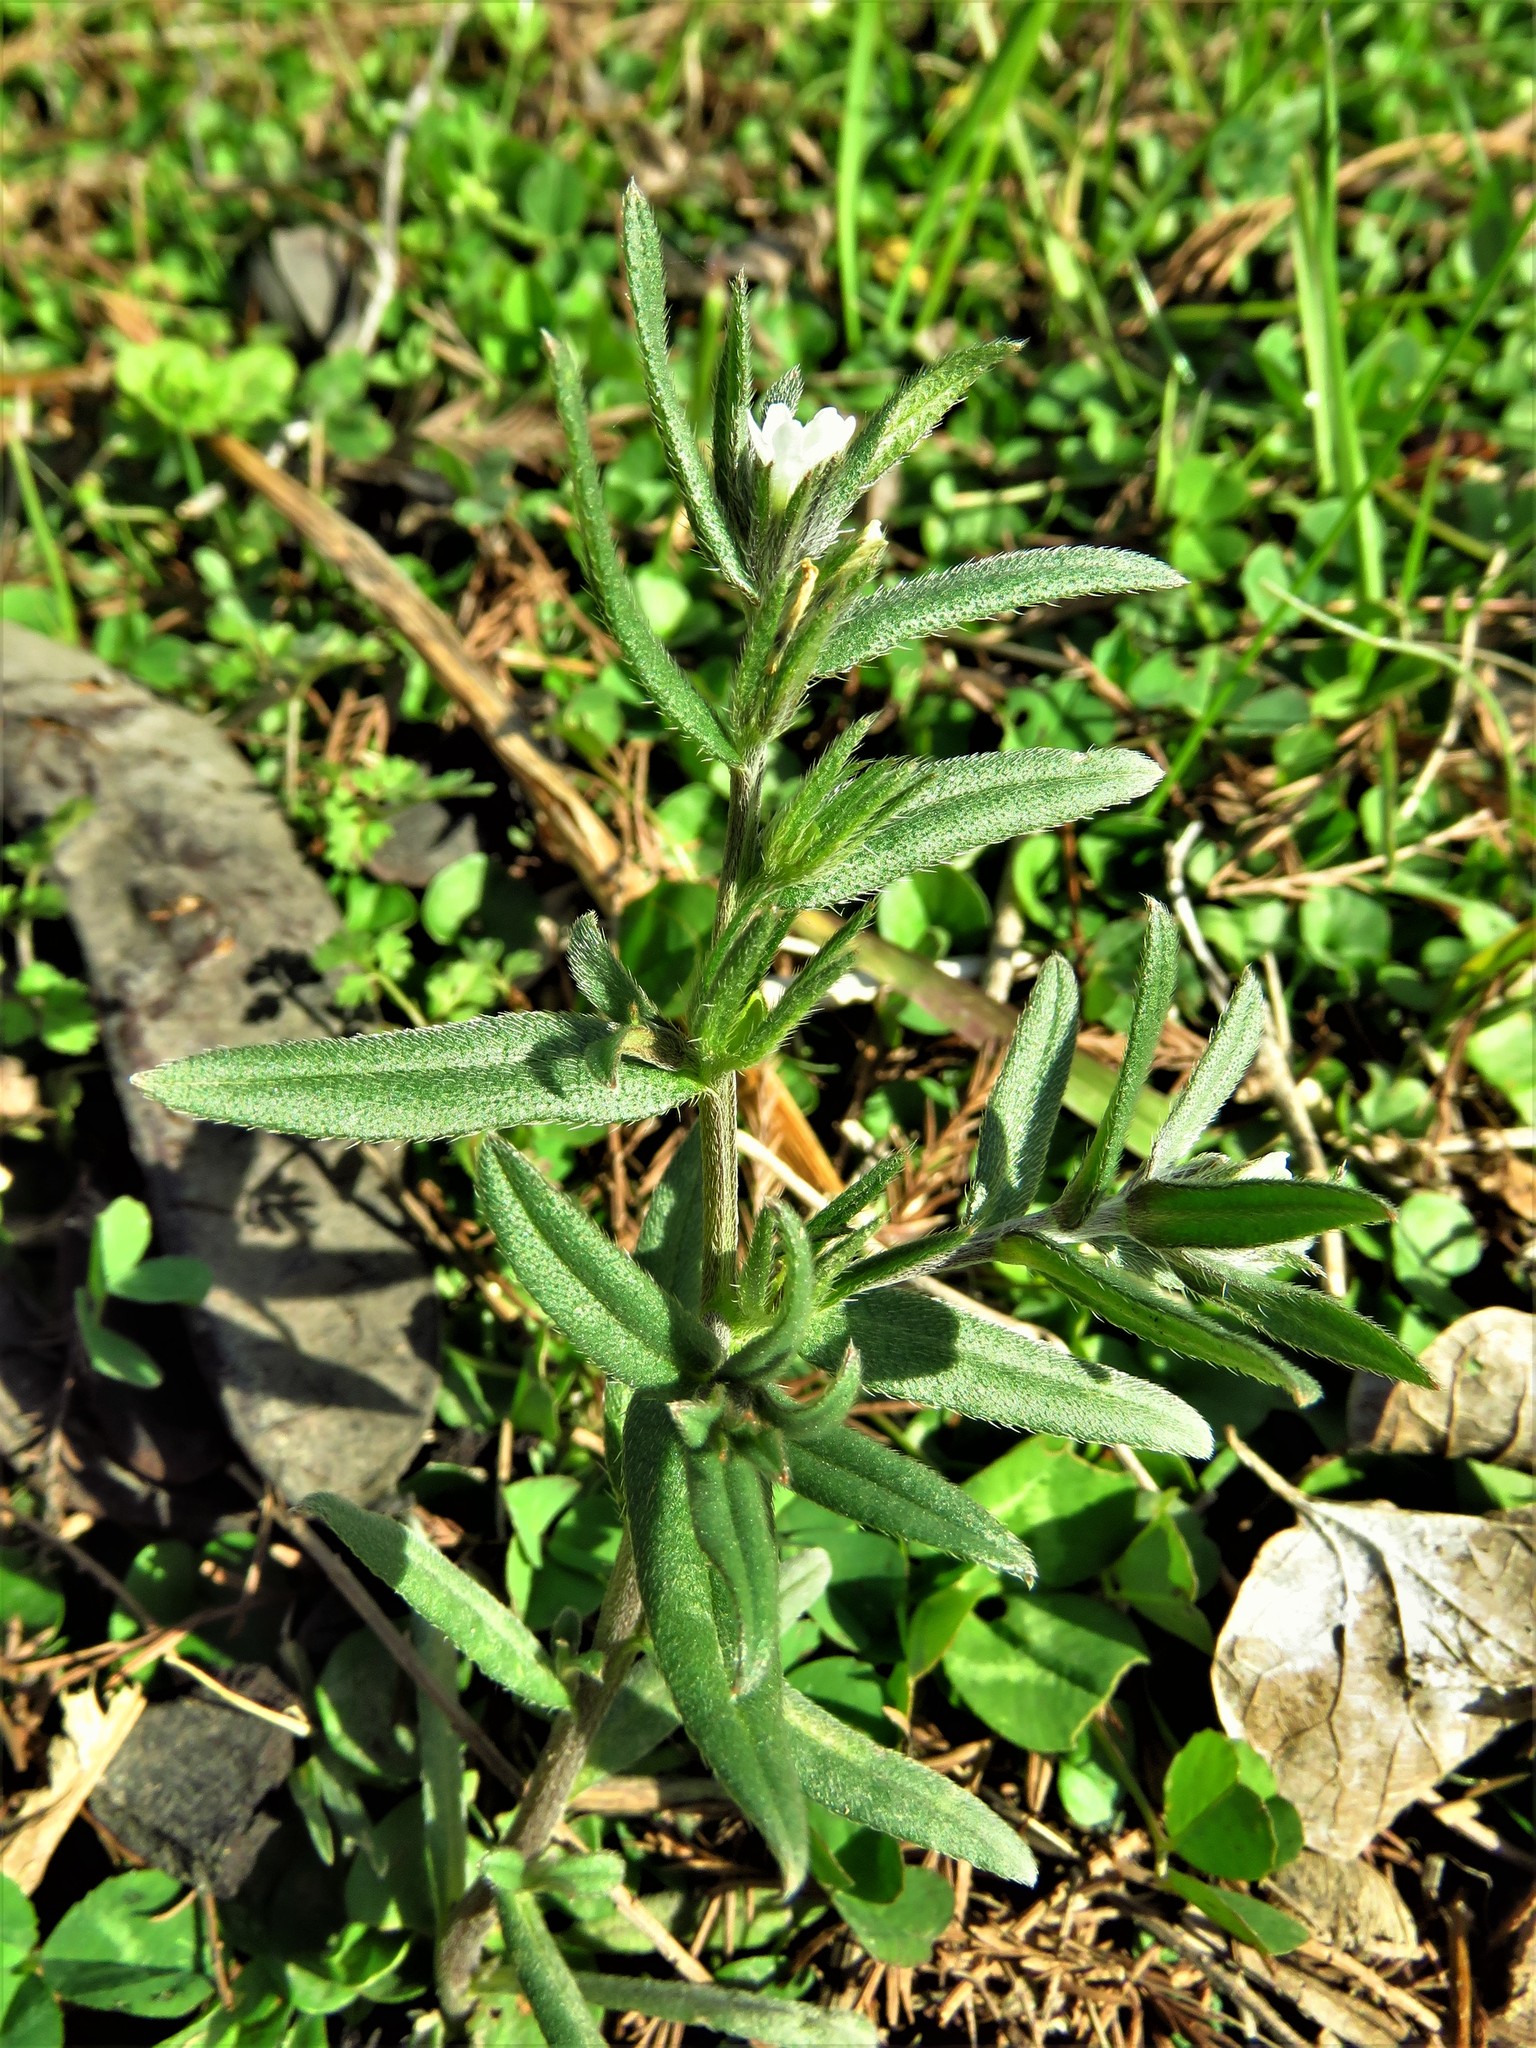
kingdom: Plantae
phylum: Tracheophyta
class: Magnoliopsida
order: Boraginales
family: Boraginaceae
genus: Buglossoides
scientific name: Buglossoides arvensis
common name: Corn gromwell
